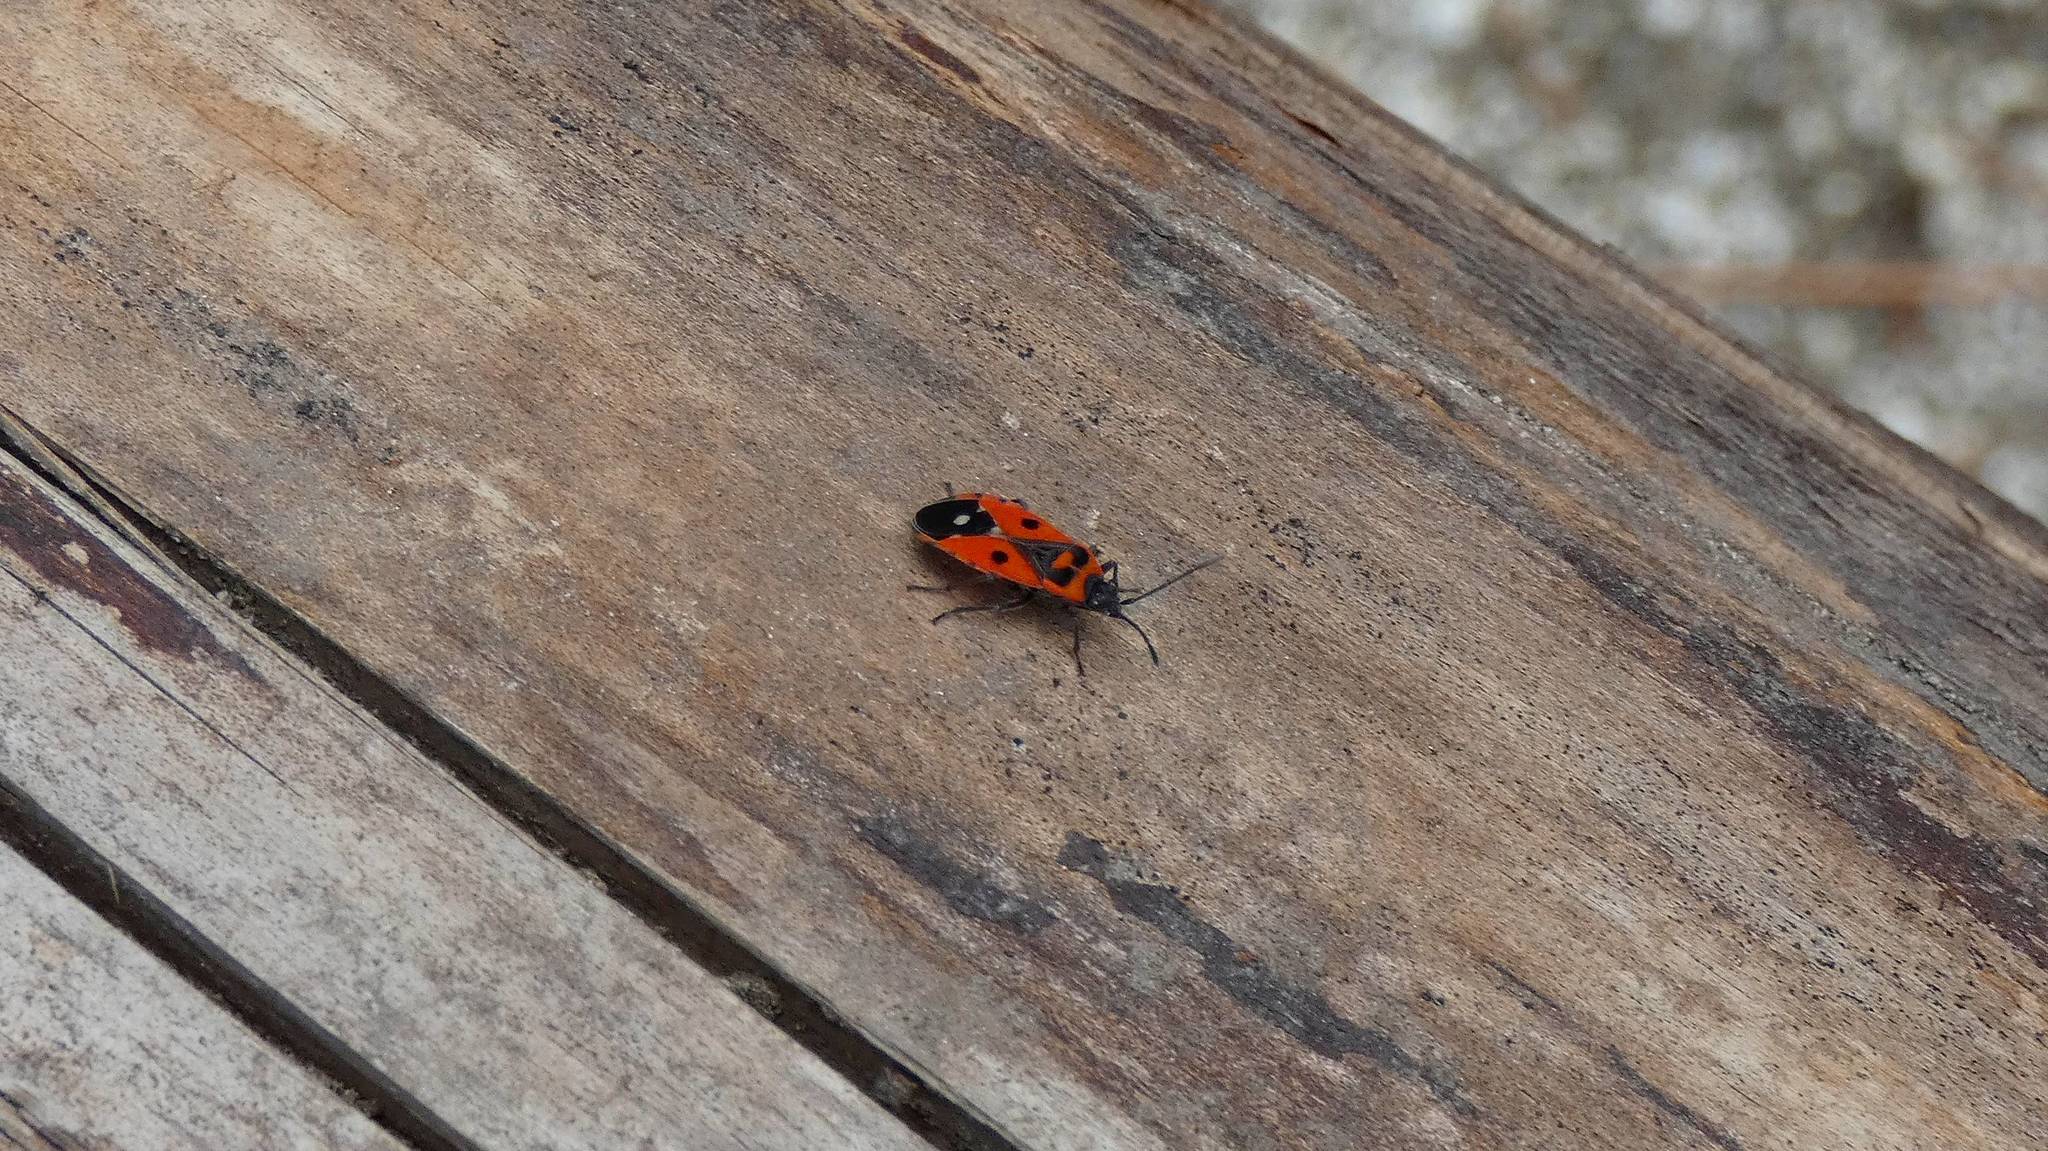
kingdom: Animalia
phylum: Arthropoda
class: Insecta
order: Hemiptera
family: Lygaeidae
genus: Melanocoryphus
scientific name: Melanocoryphus albomaculatus
